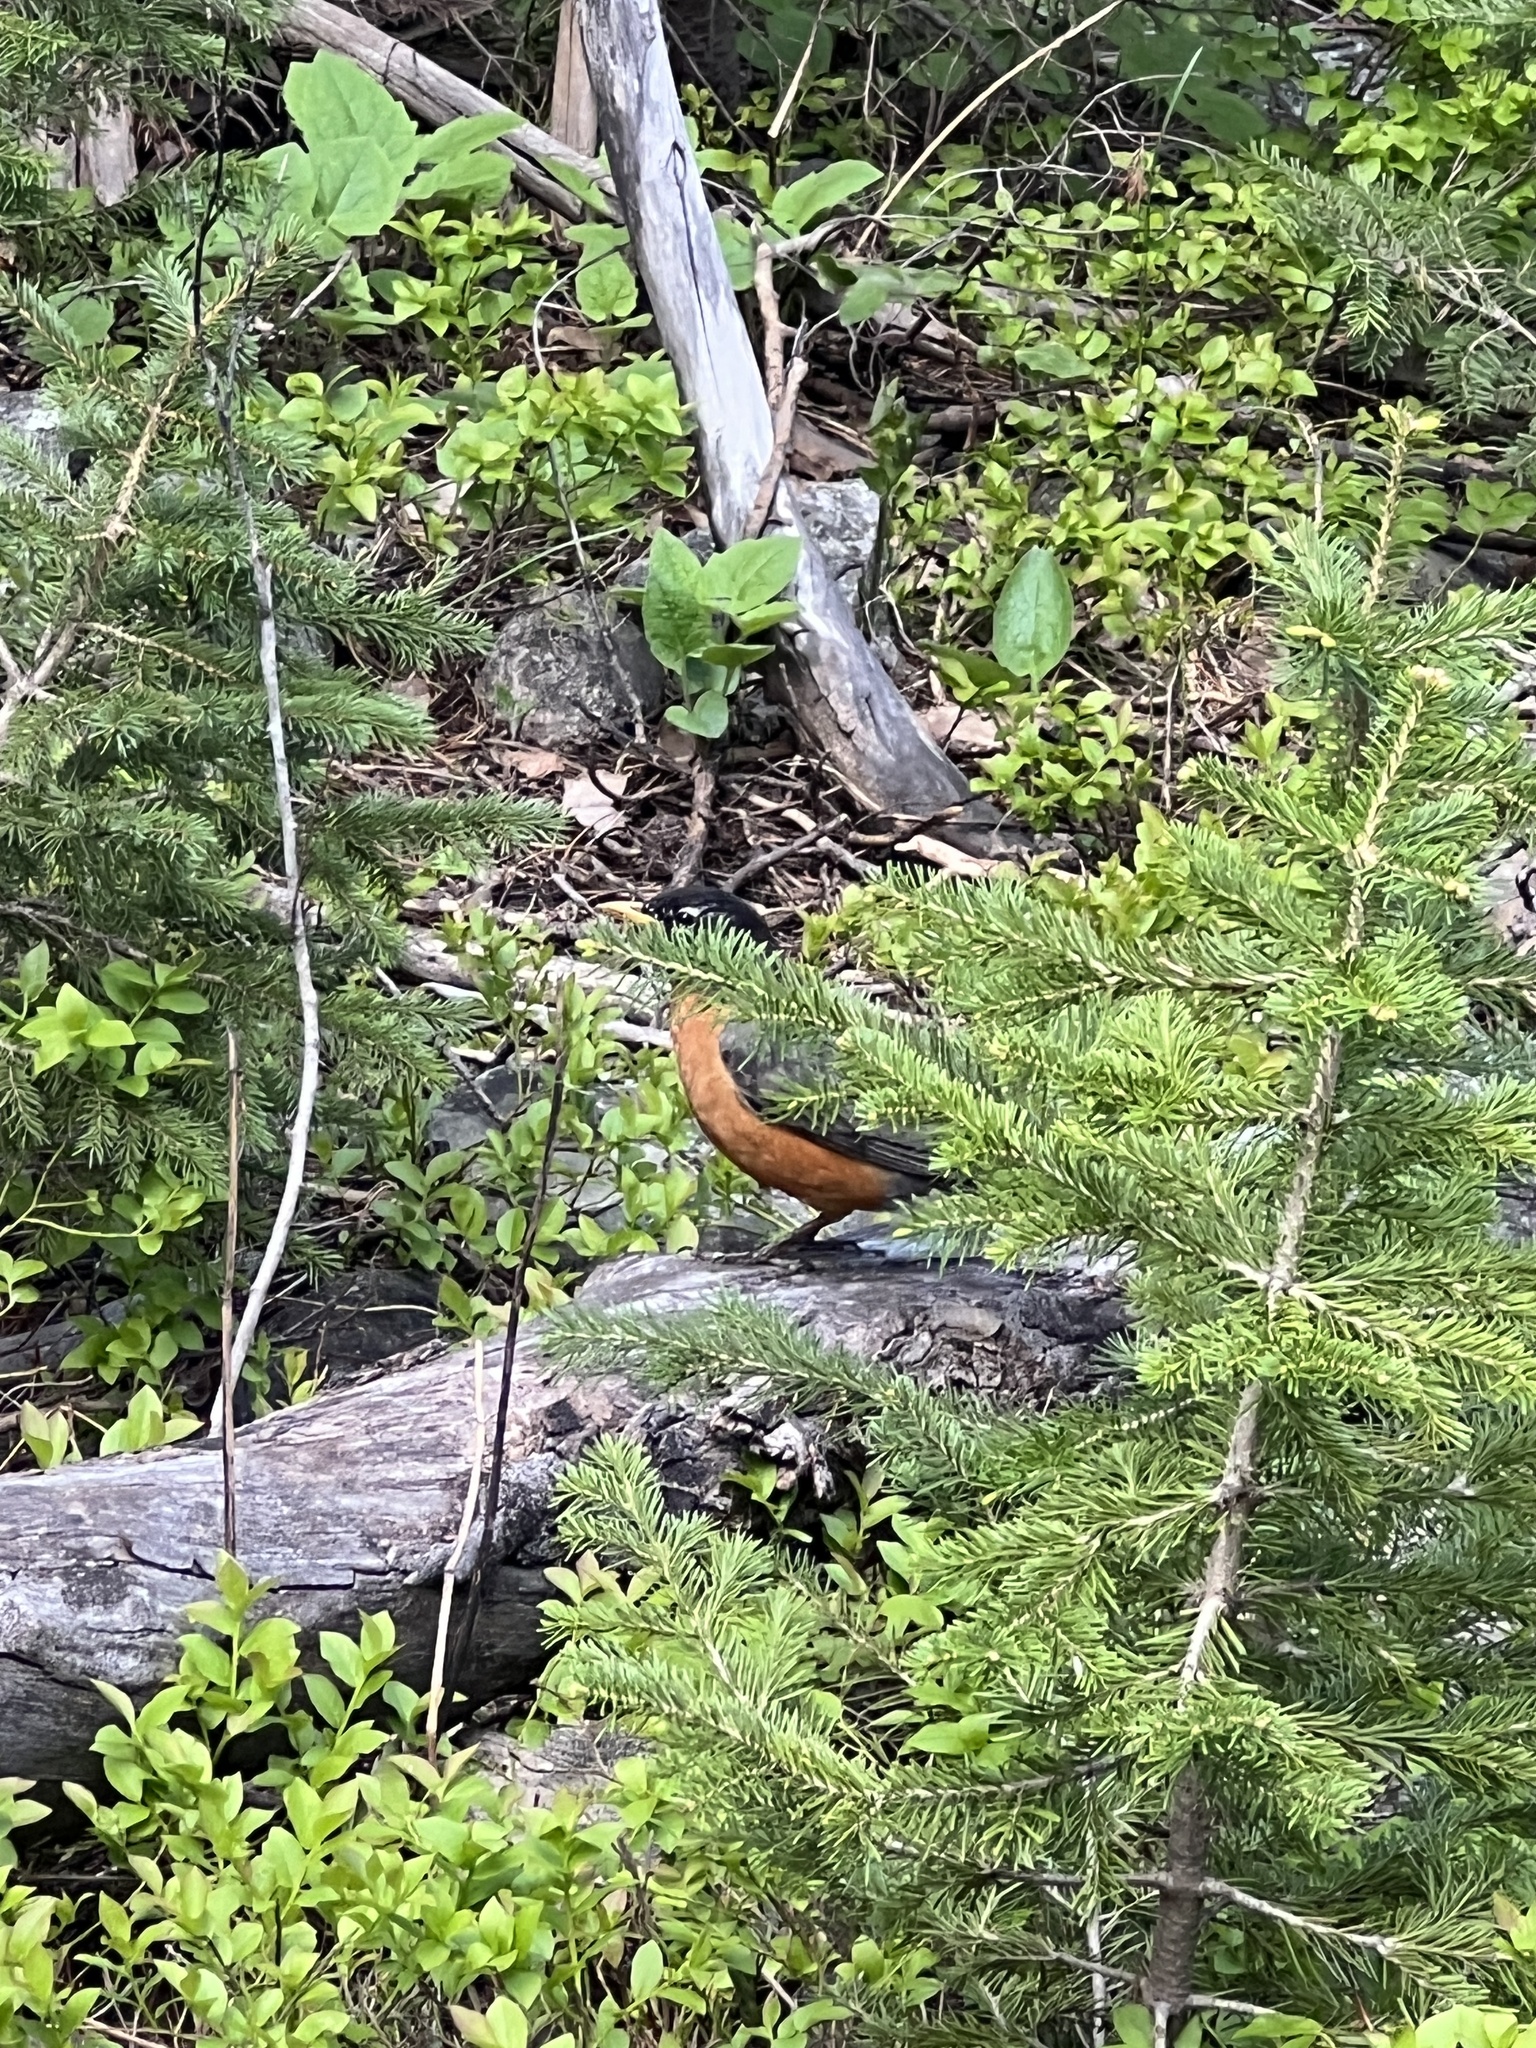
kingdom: Animalia
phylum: Chordata
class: Aves
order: Passeriformes
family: Turdidae
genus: Turdus
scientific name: Turdus migratorius
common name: American robin
